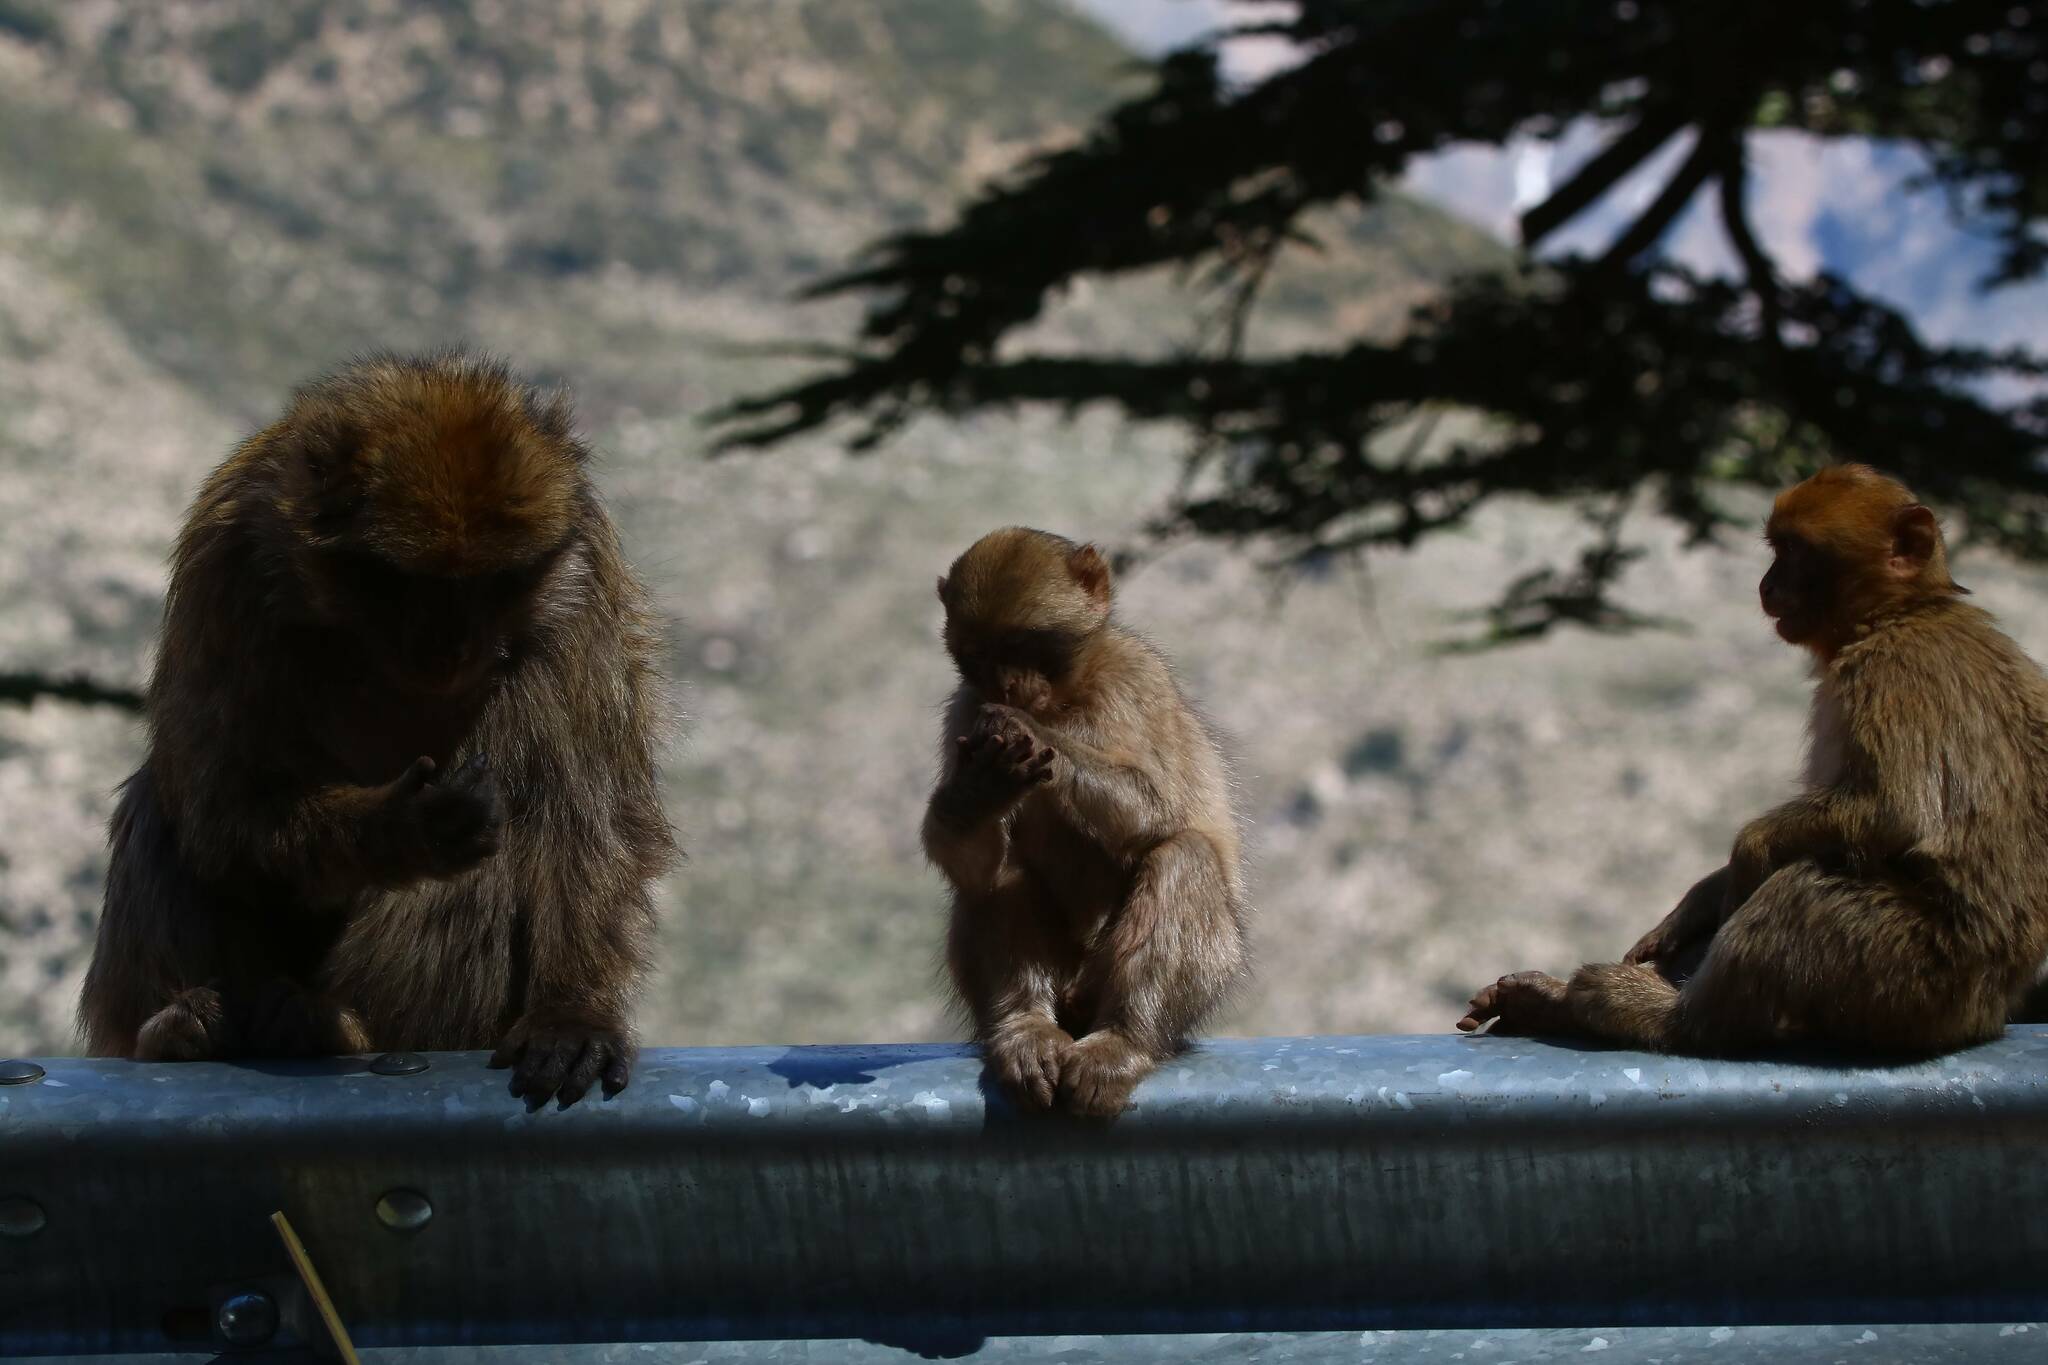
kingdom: Animalia
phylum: Chordata
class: Mammalia
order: Primates
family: Cercopithecidae
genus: Macaca
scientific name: Macaca sylvanus
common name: Barbary macaque
